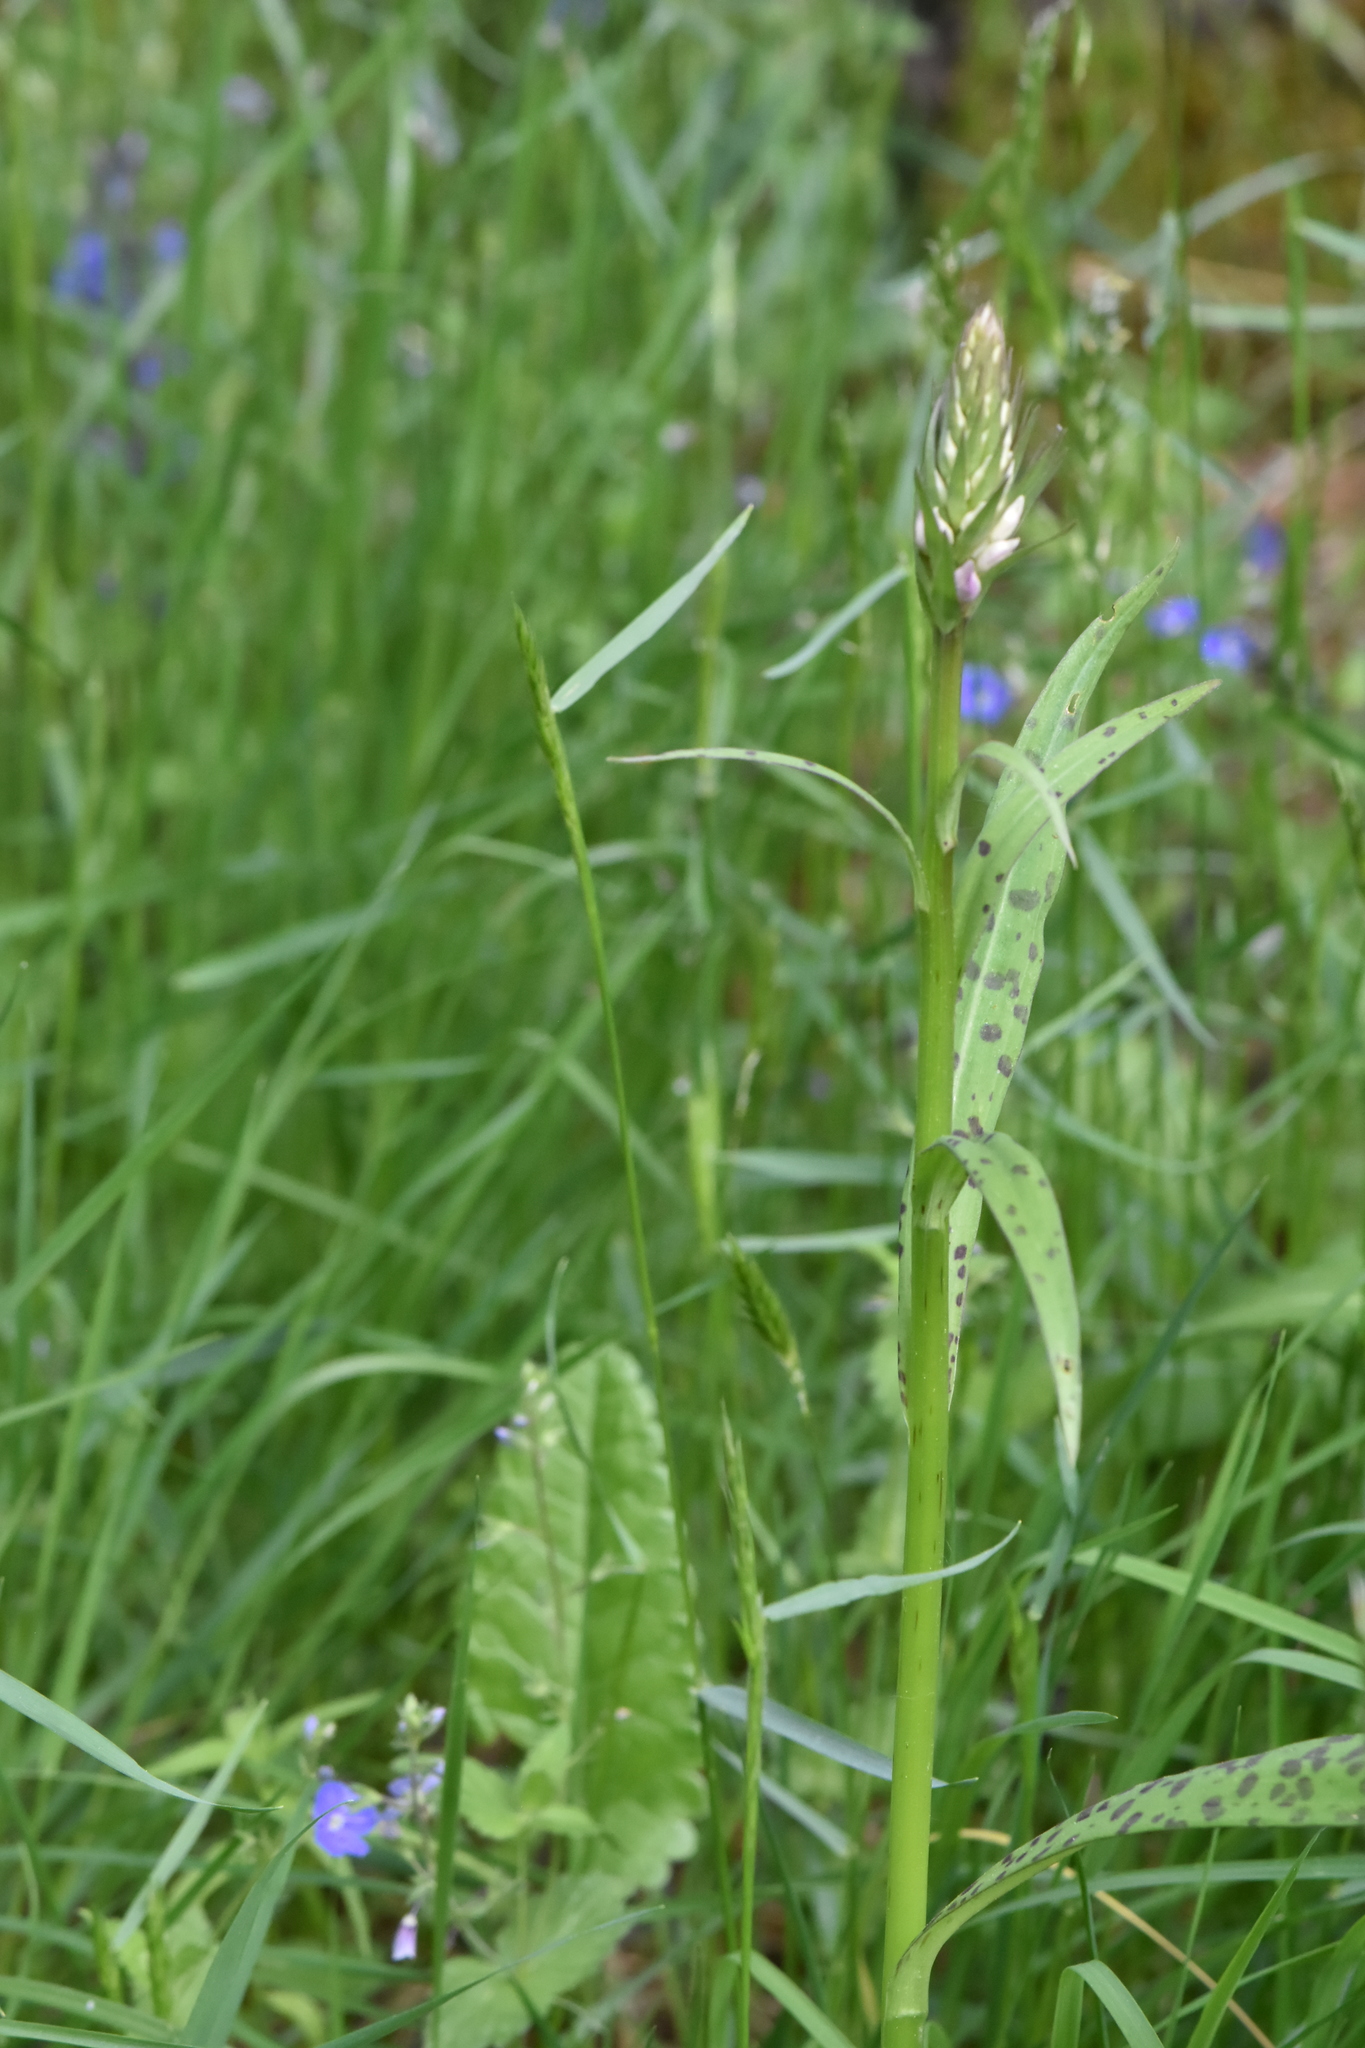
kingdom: Plantae
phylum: Tracheophyta
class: Liliopsida
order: Asparagales
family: Orchidaceae
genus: Dactylorhiza
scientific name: Dactylorhiza maculata
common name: Heath spotted-orchid
